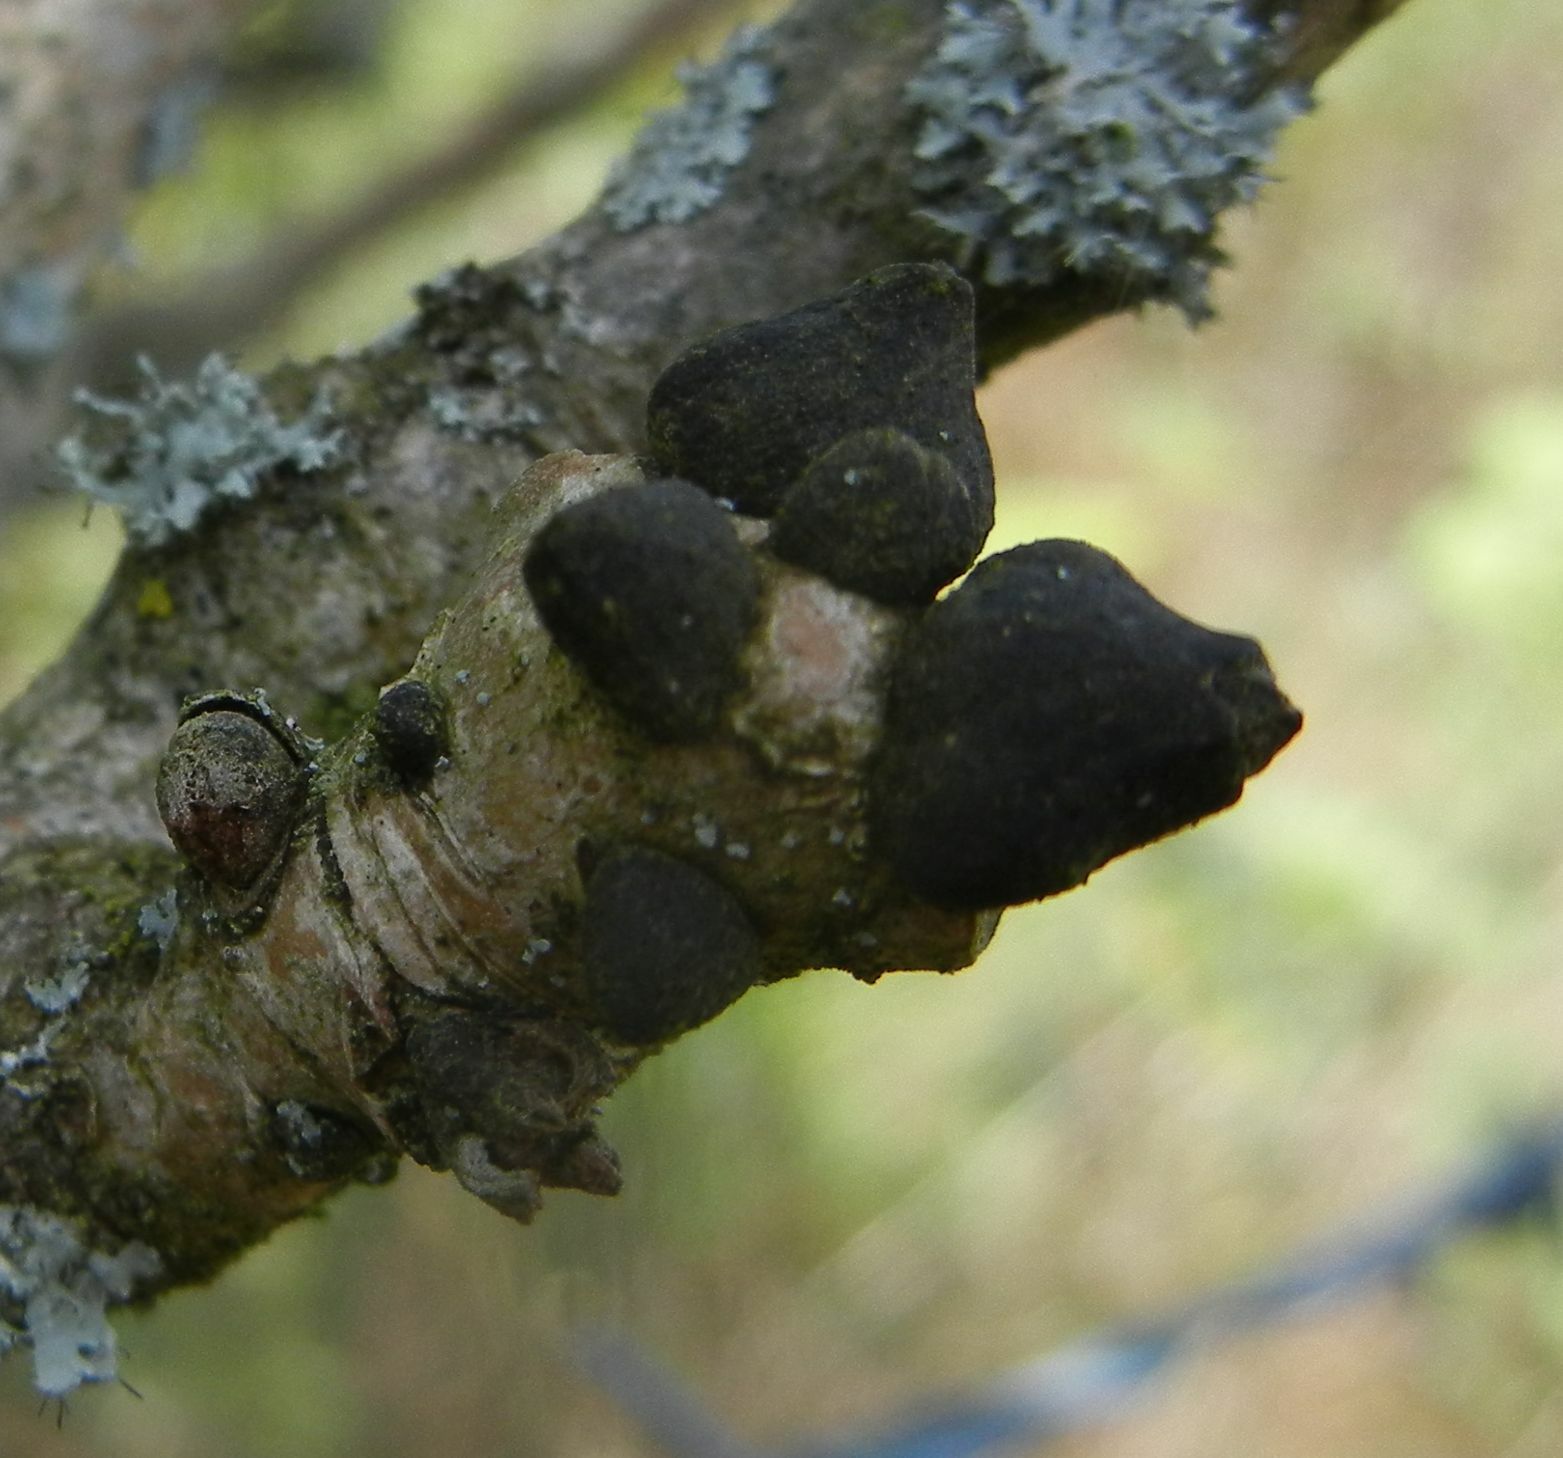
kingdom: Plantae
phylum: Tracheophyta
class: Magnoliopsida
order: Lamiales
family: Oleaceae
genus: Fraxinus
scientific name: Fraxinus excelsior
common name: European ash
